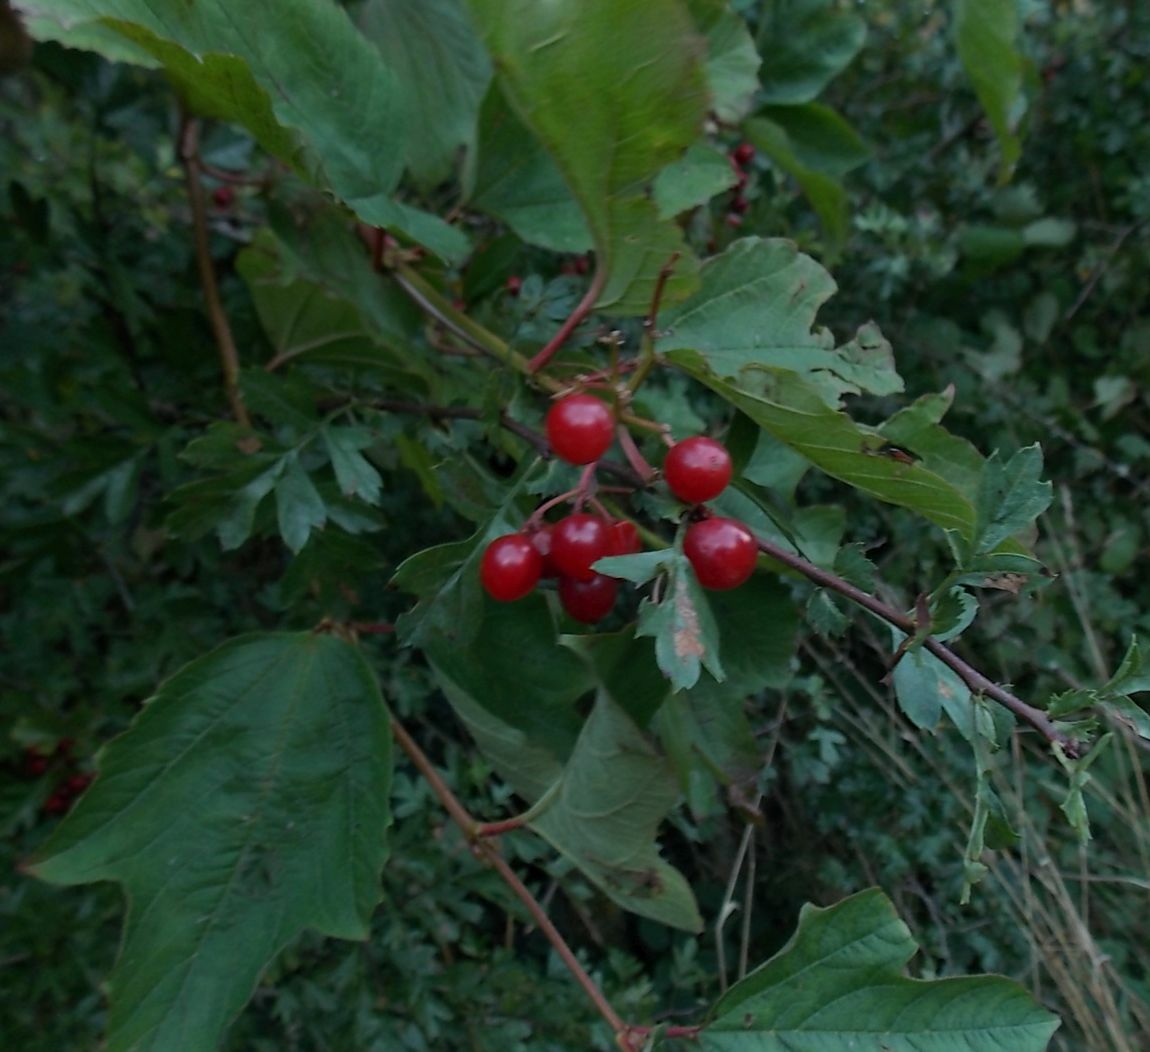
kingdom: Plantae
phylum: Tracheophyta
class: Magnoliopsida
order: Dipsacales
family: Viburnaceae
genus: Viburnum
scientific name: Viburnum opulus
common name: Guelder-rose
